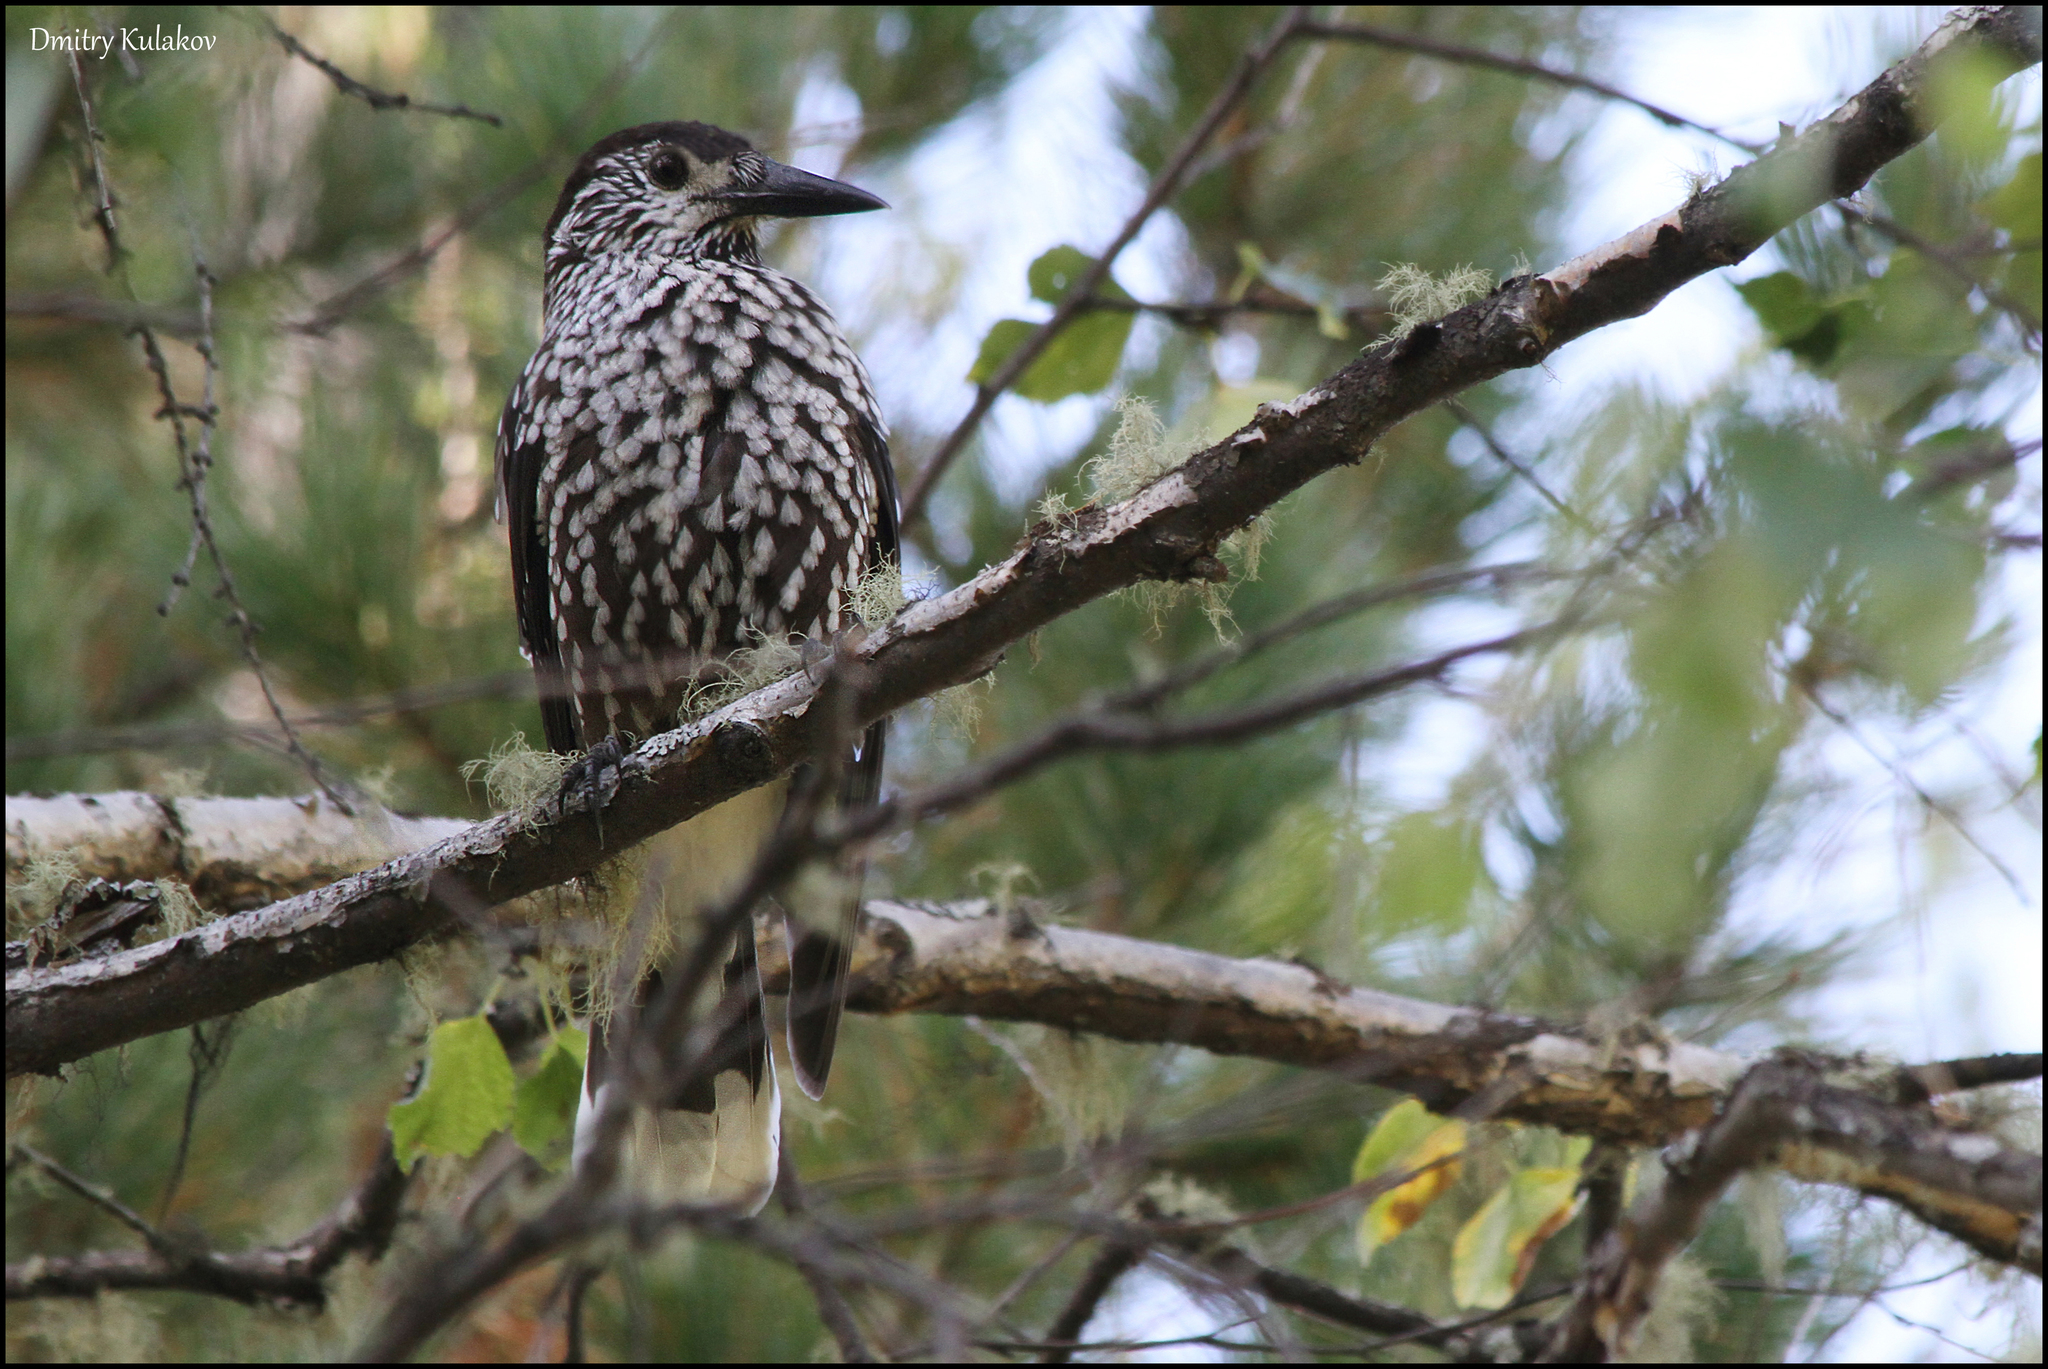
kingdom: Animalia
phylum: Chordata
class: Aves
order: Passeriformes
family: Corvidae
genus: Nucifraga
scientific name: Nucifraga caryocatactes
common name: Spotted nutcracker
